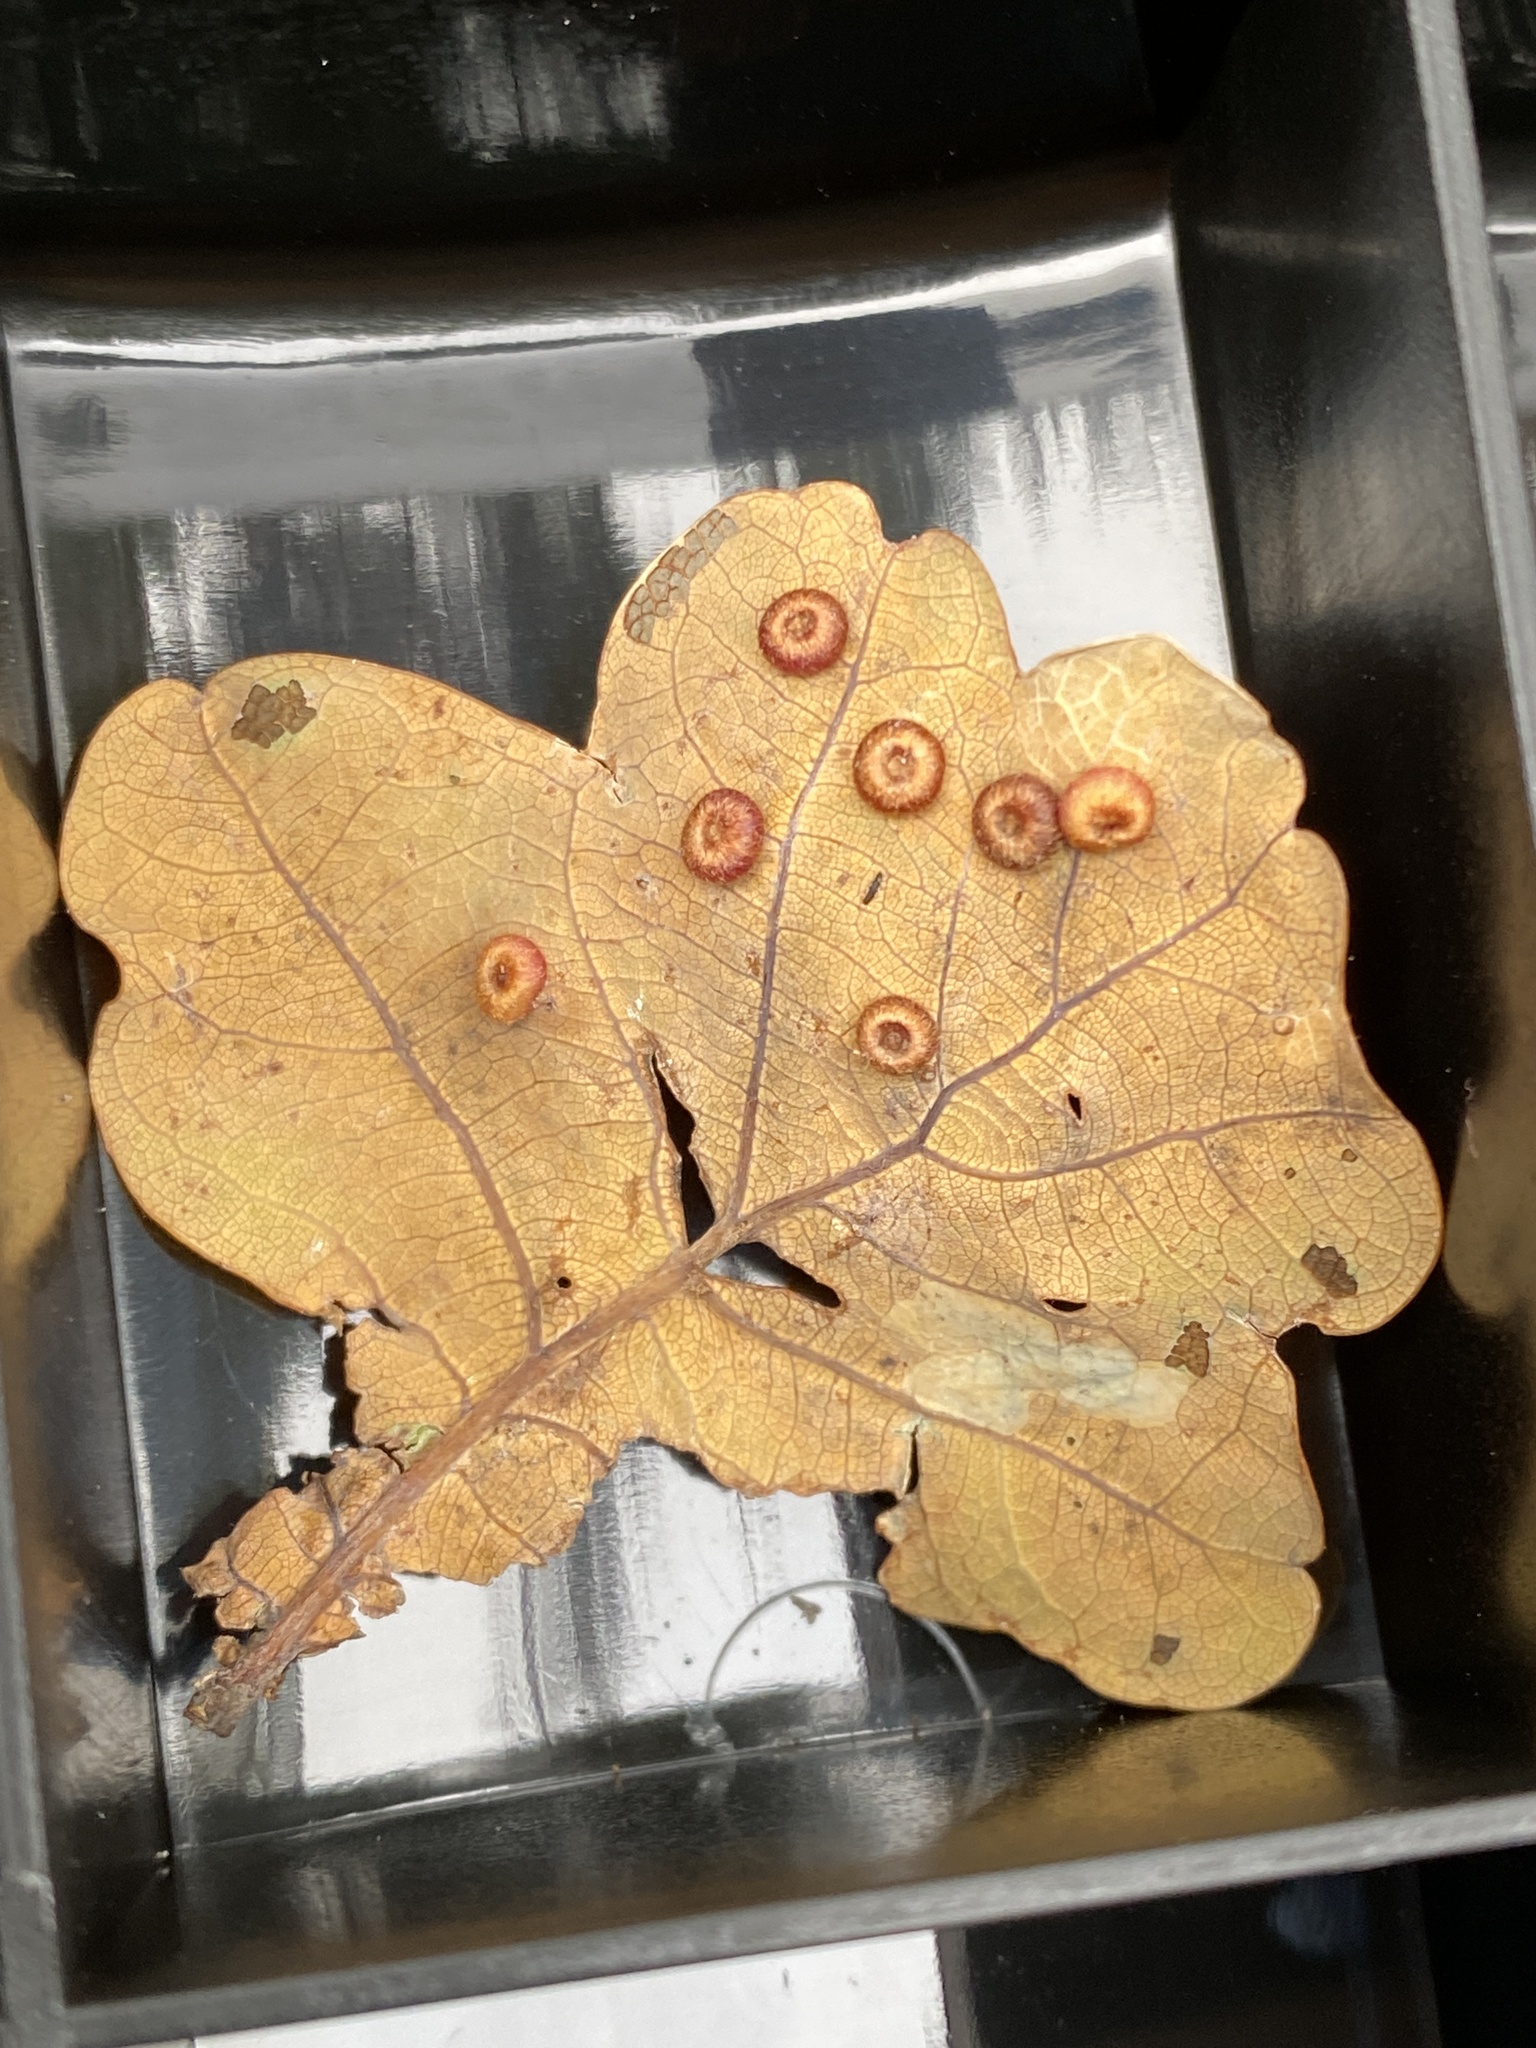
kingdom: Animalia
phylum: Arthropoda
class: Insecta
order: Hymenoptera
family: Cynipidae
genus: Neuroterus
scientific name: Neuroterus numismalis
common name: Silk-button spangle gall
